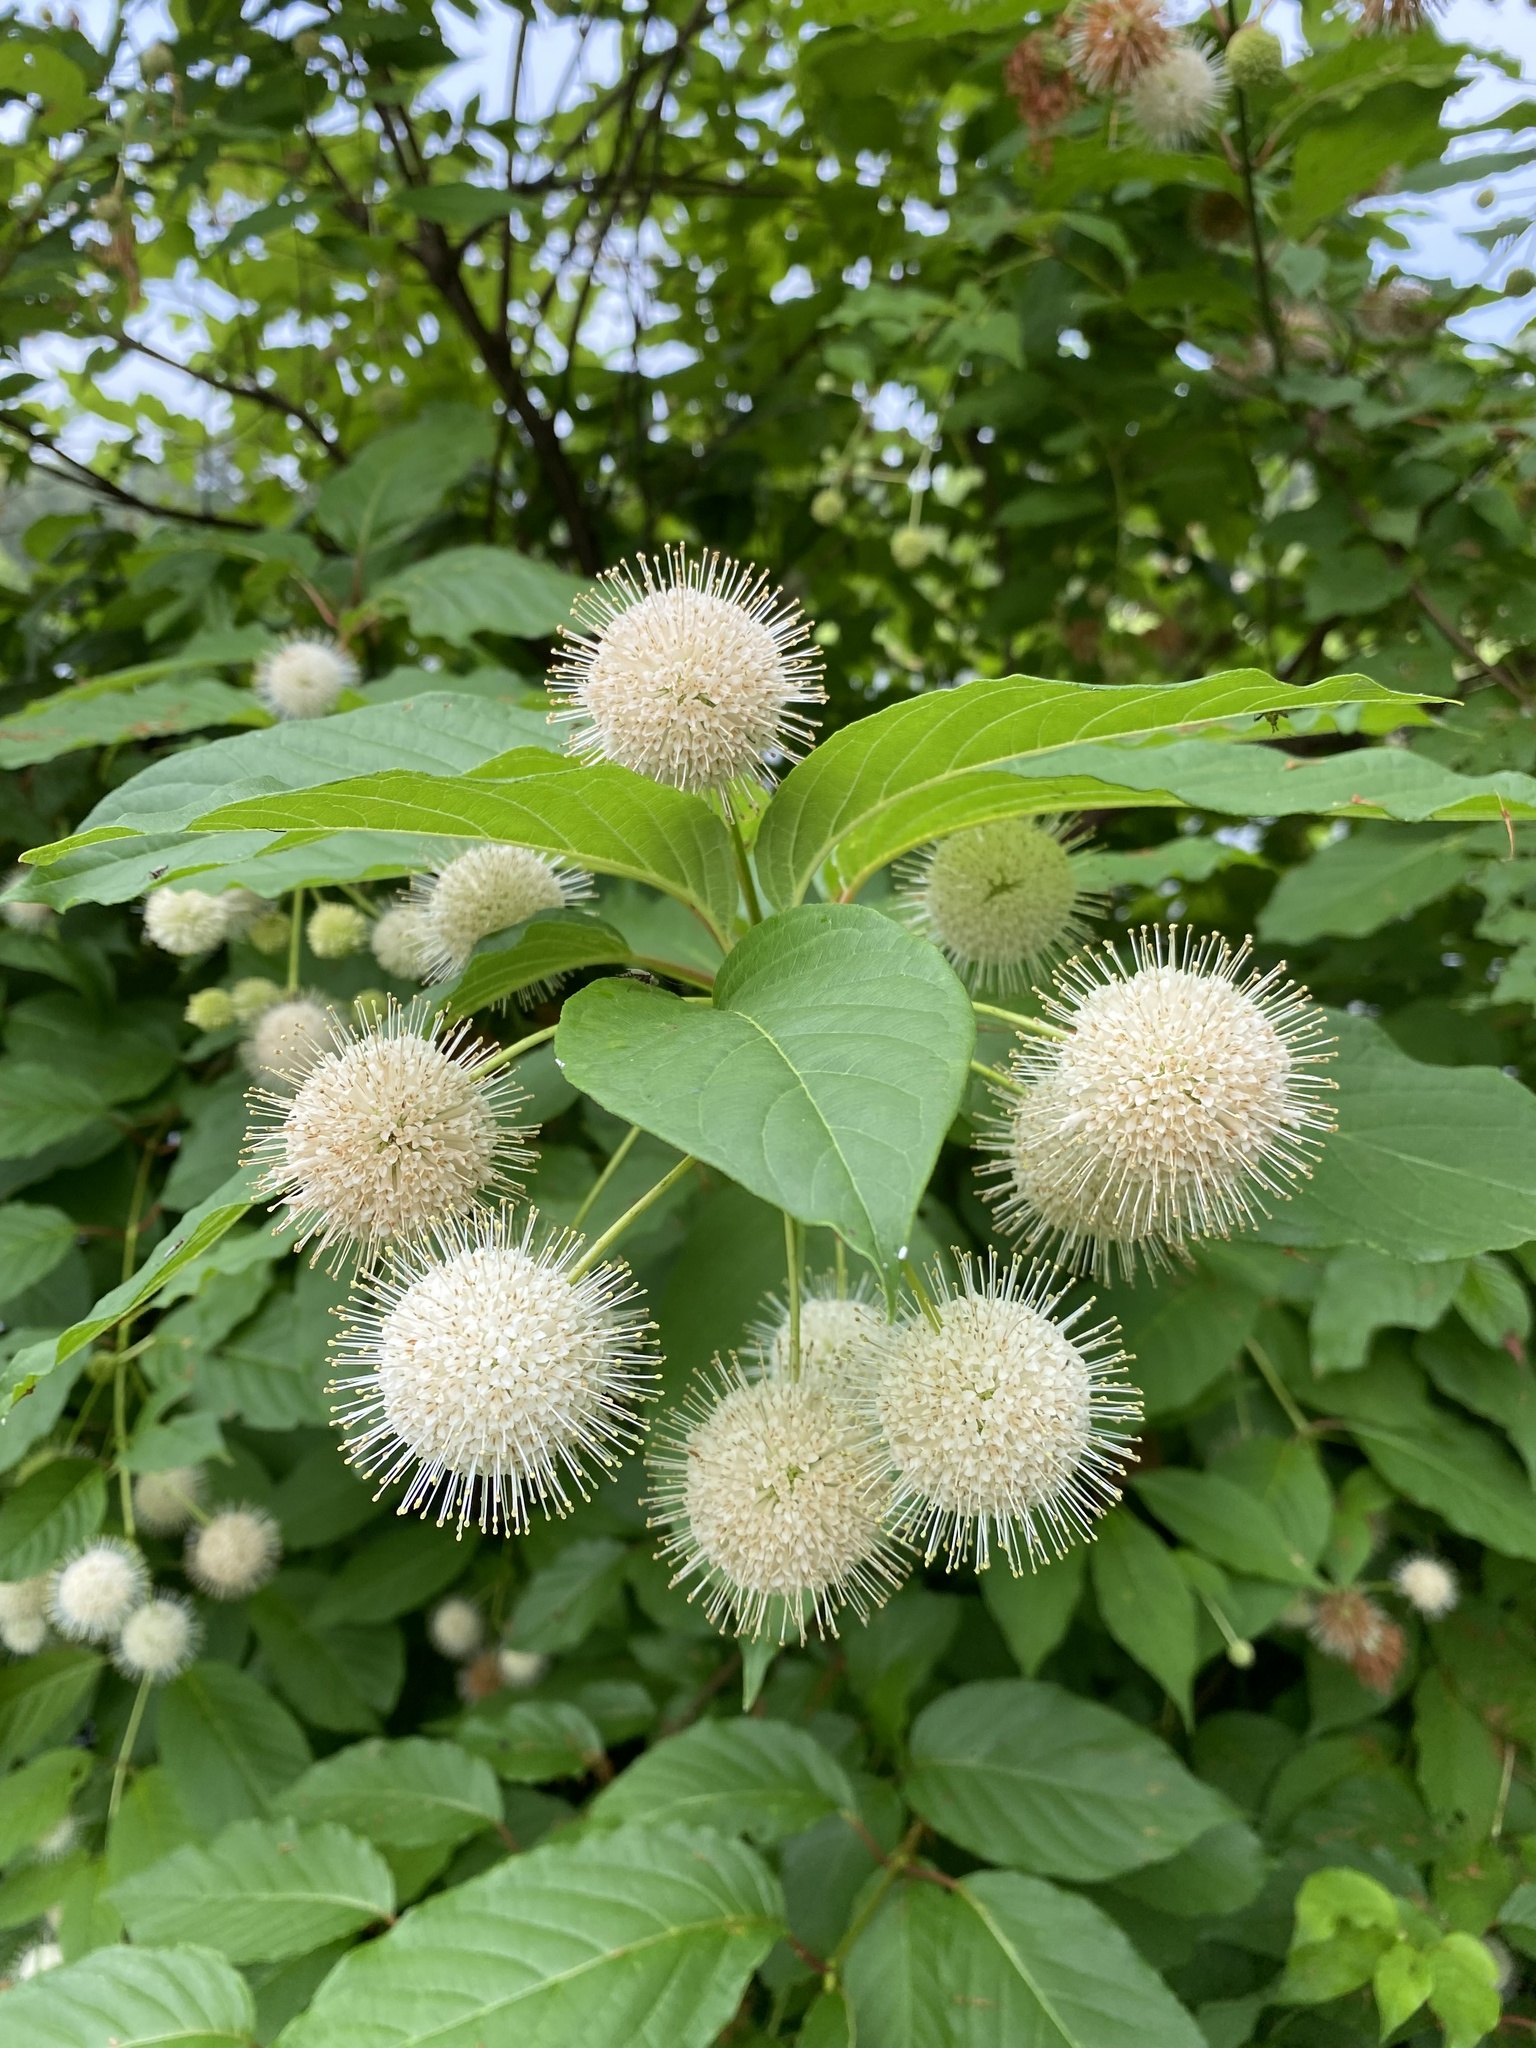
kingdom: Plantae
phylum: Tracheophyta
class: Magnoliopsida
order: Gentianales
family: Rubiaceae
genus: Cephalanthus
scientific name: Cephalanthus occidentalis
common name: Button-willow
